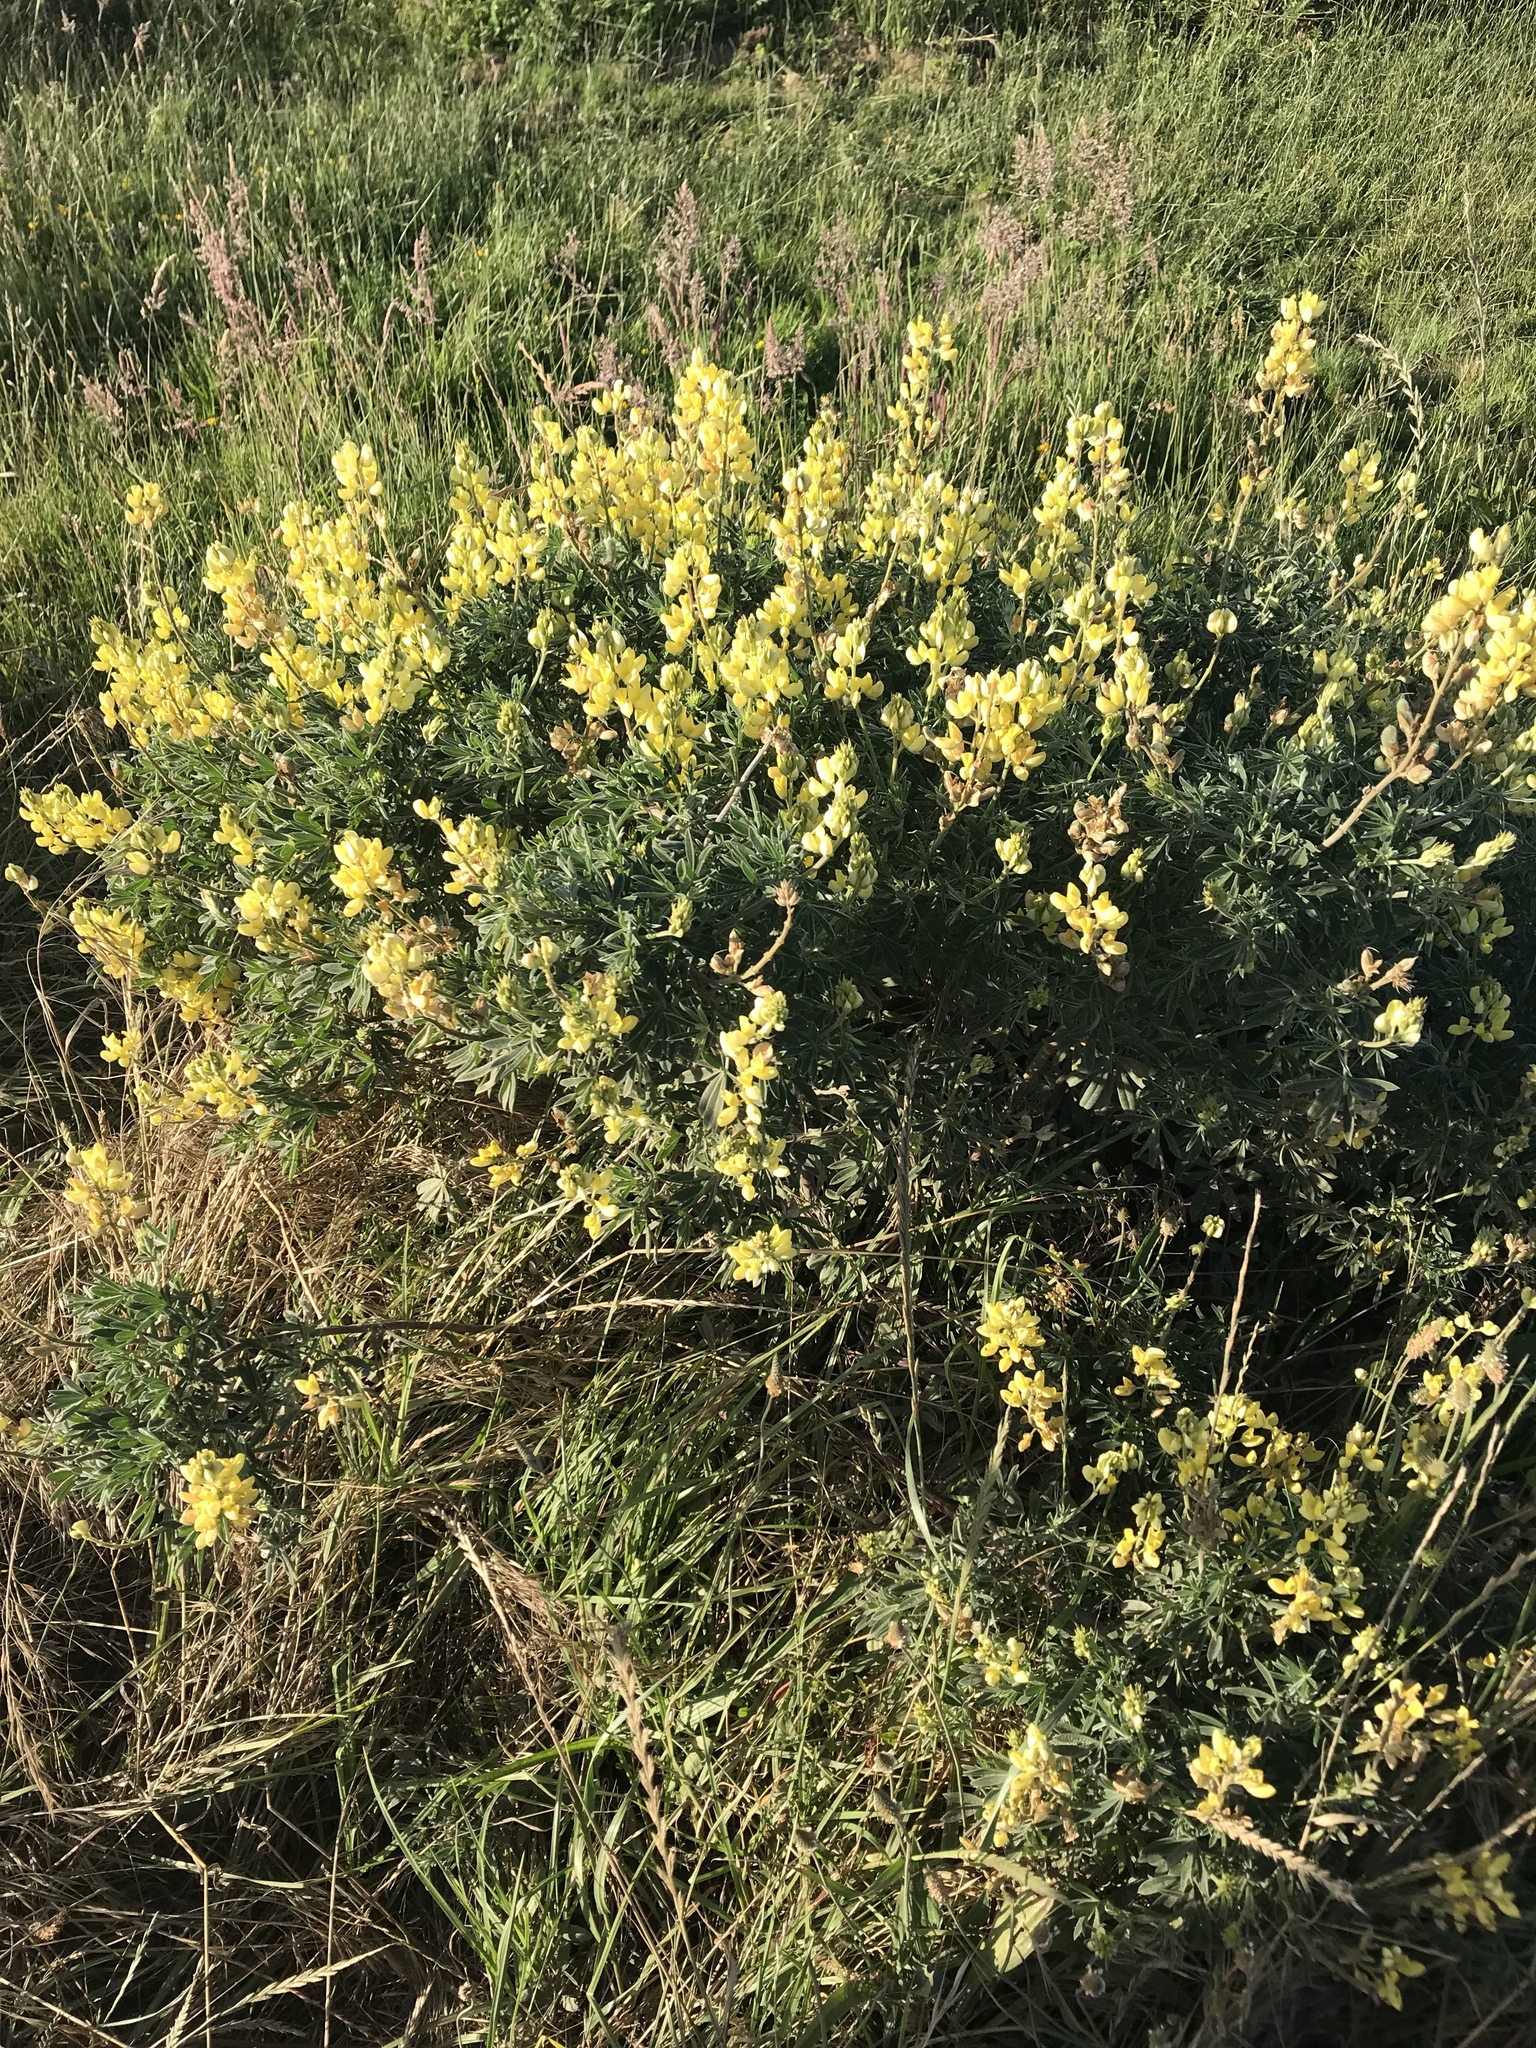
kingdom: Plantae
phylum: Tracheophyta
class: Magnoliopsida
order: Fabales
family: Fabaceae
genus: Lupinus
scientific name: Lupinus arboreus
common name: Yellow bush lupine
